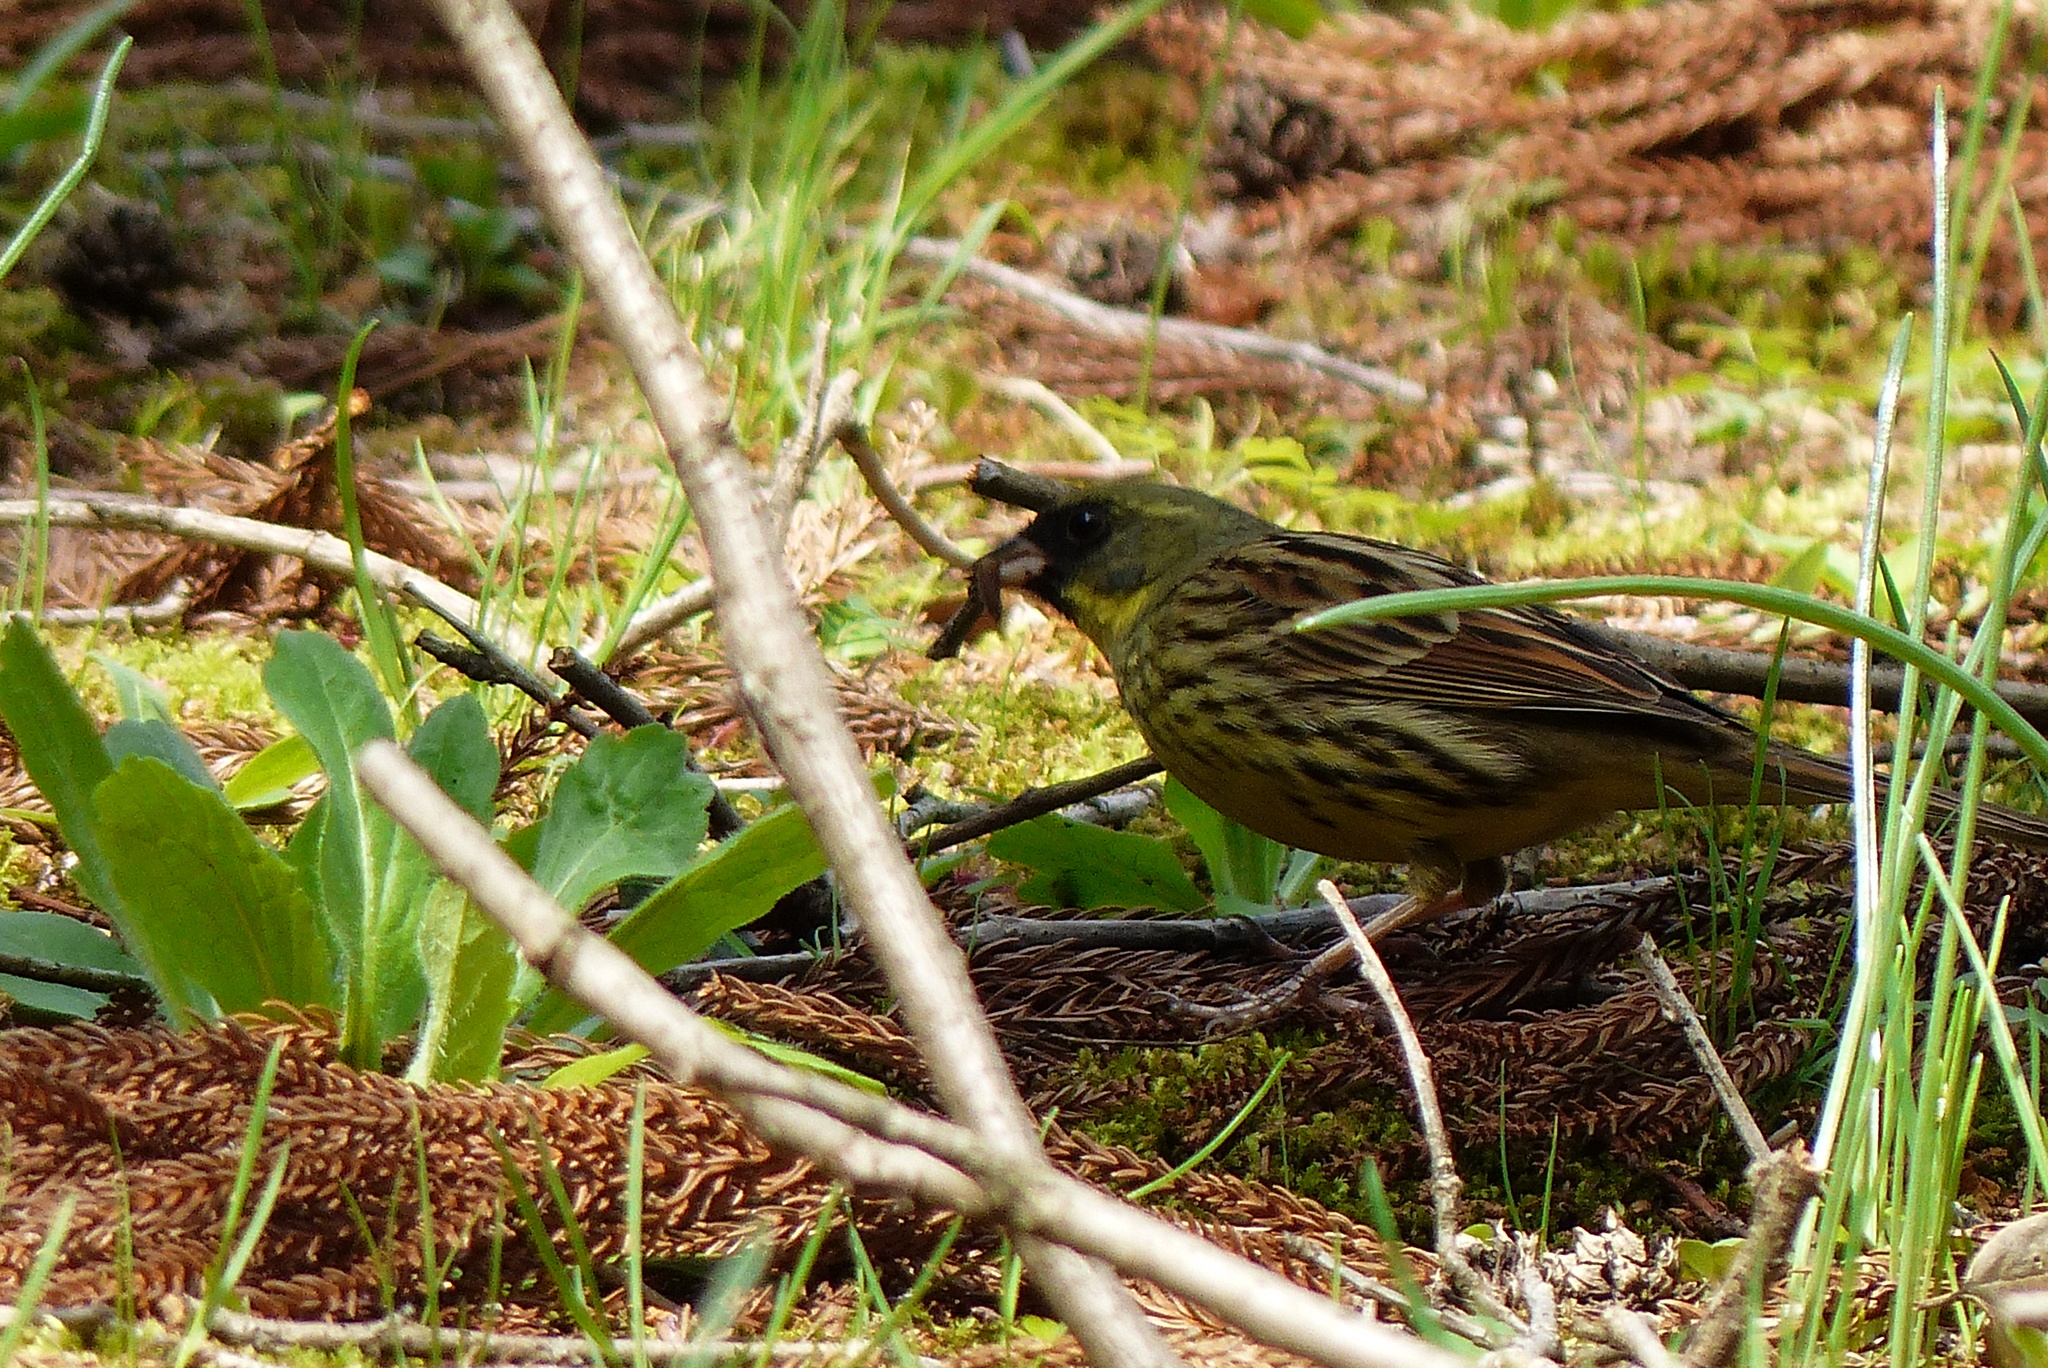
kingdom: Animalia
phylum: Chordata
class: Aves
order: Passeriformes
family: Emberizidae
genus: Emberiza
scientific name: Emberiza personata
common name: Masked bunting
